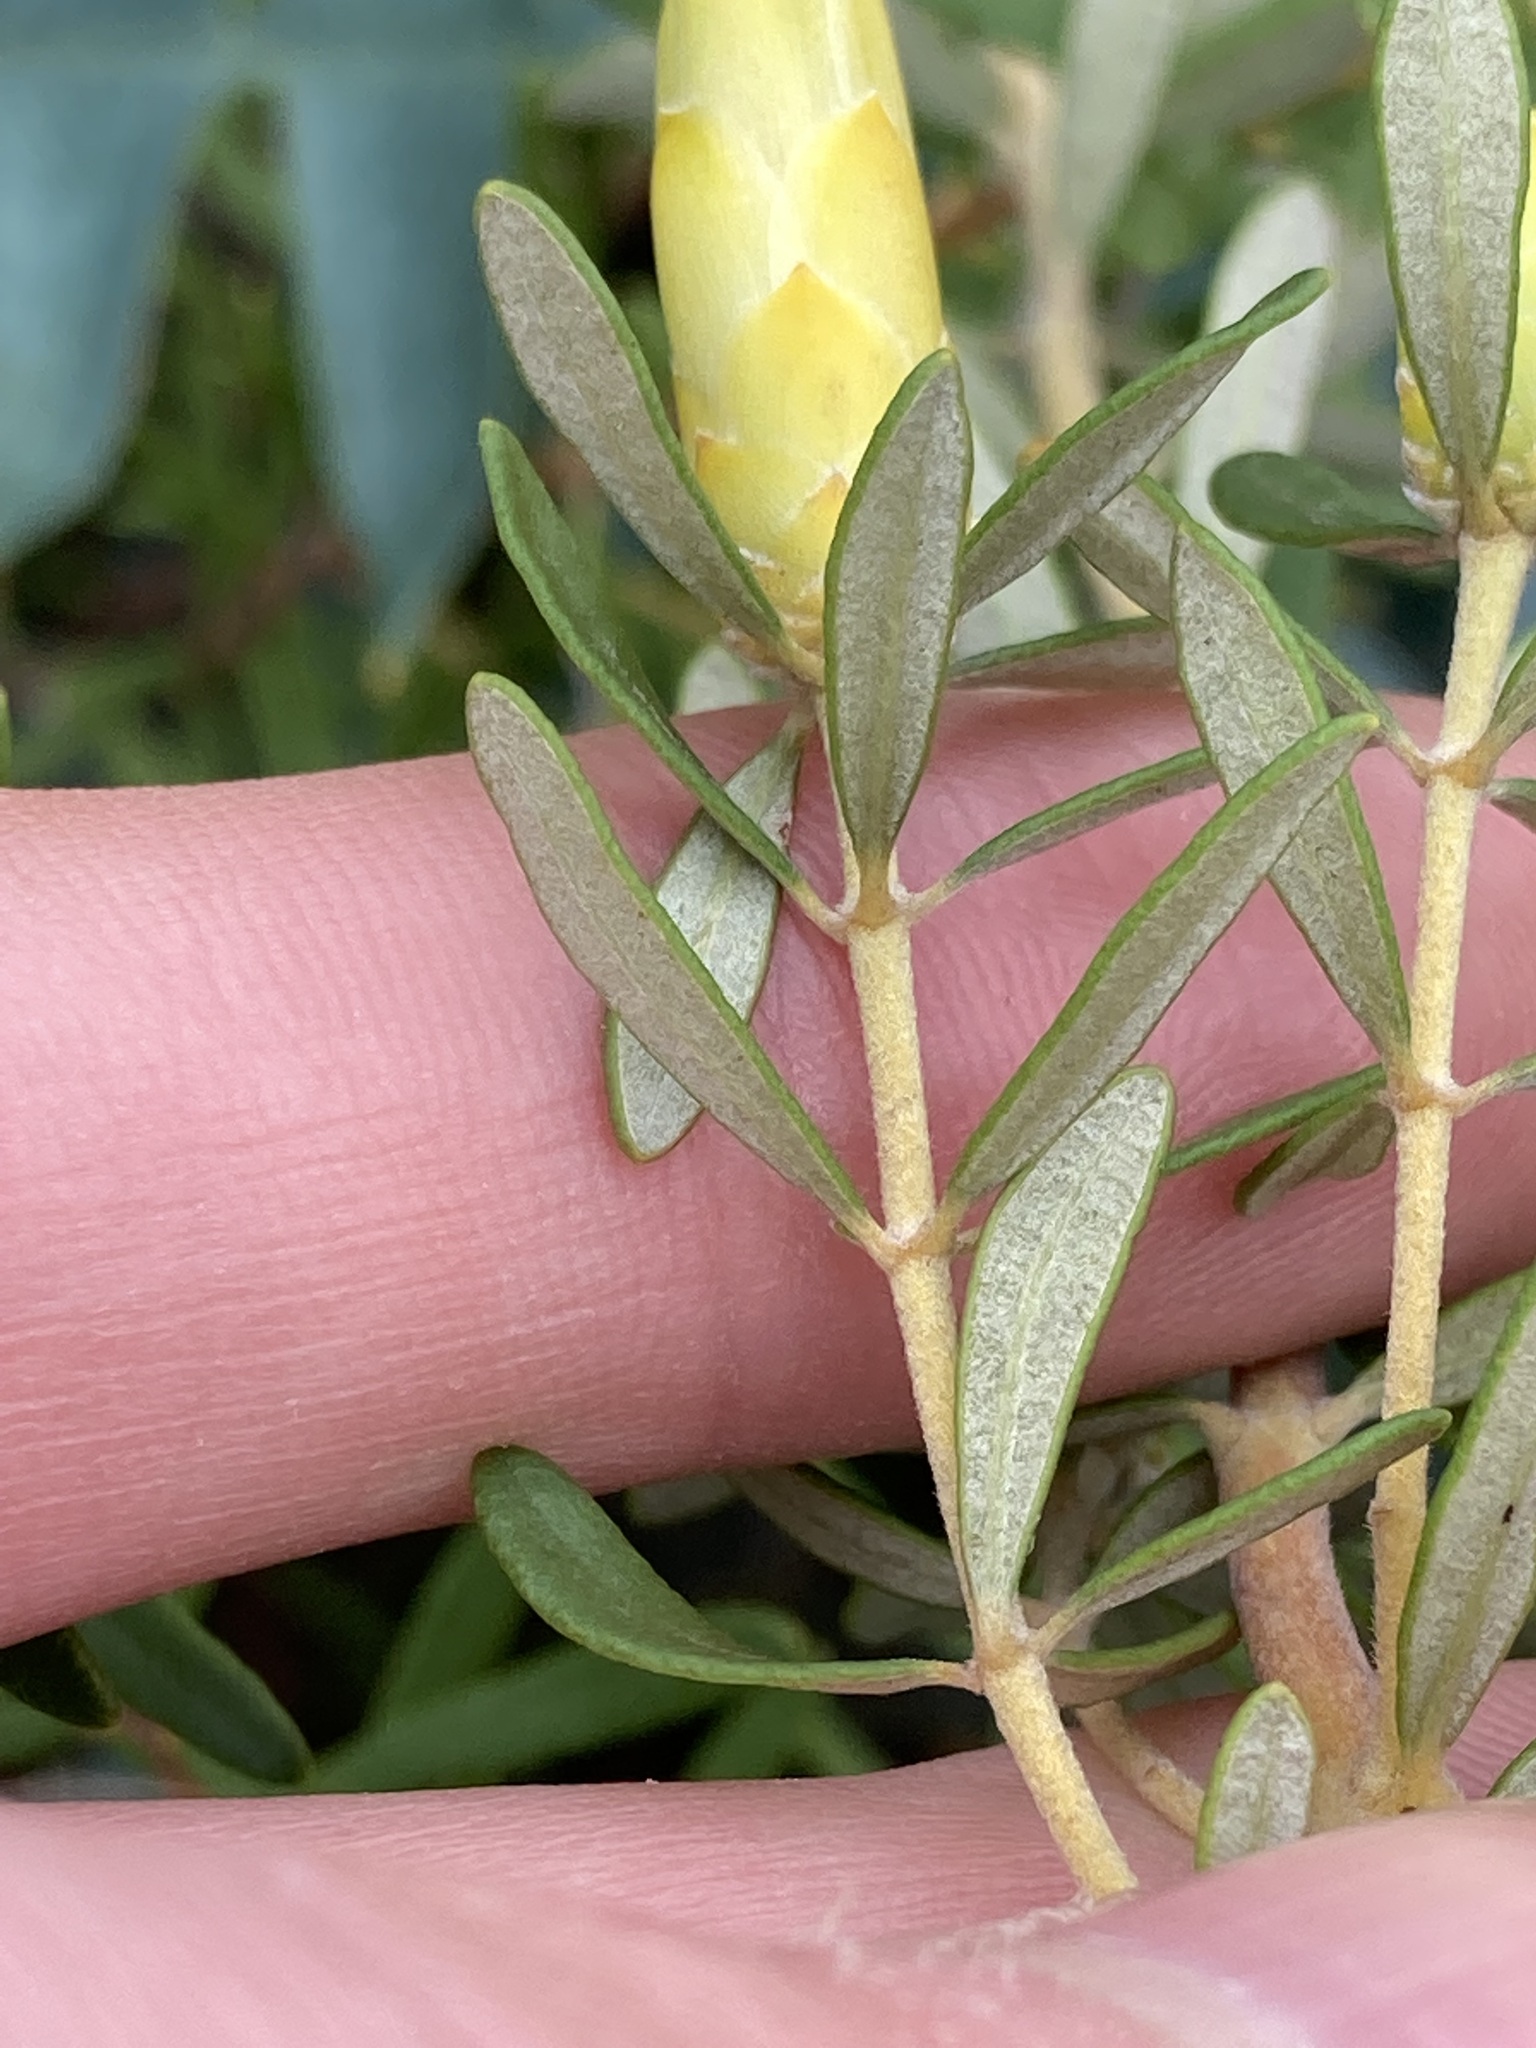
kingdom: Plantae
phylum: Tracheophyta
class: Magnoliopsida
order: Proteales
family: Proteaceae
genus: Lambertia
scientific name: Lambertia inermis
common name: Chittick
